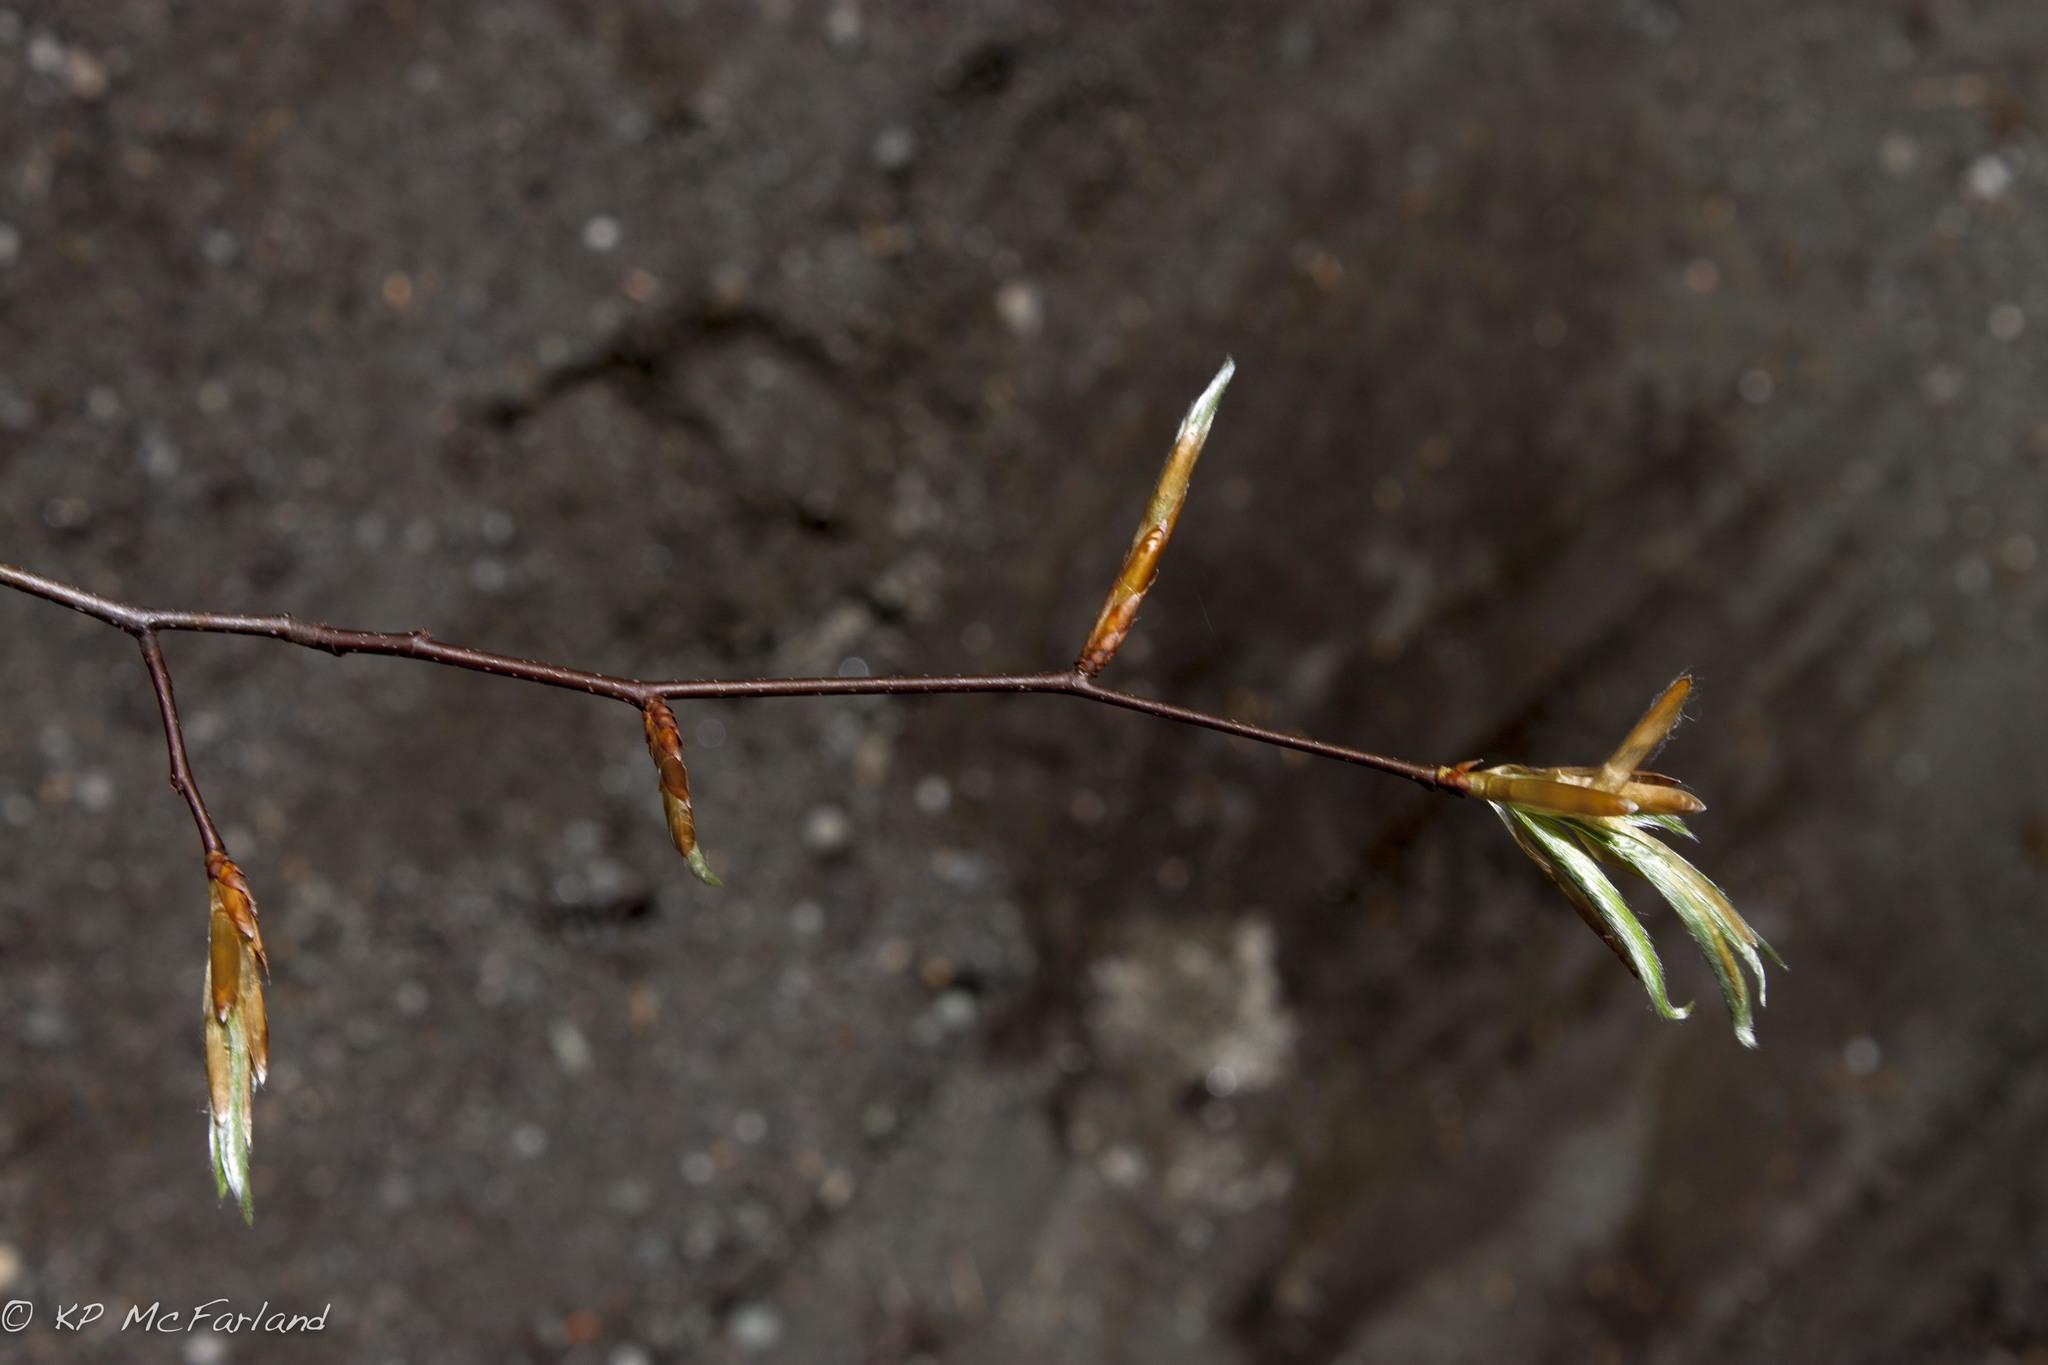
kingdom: Plantae
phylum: Tracheophyta
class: Magnoliopsida
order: Fagales
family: Fagaceae
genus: Fagus
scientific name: Fagus grandifolia
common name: American beech
